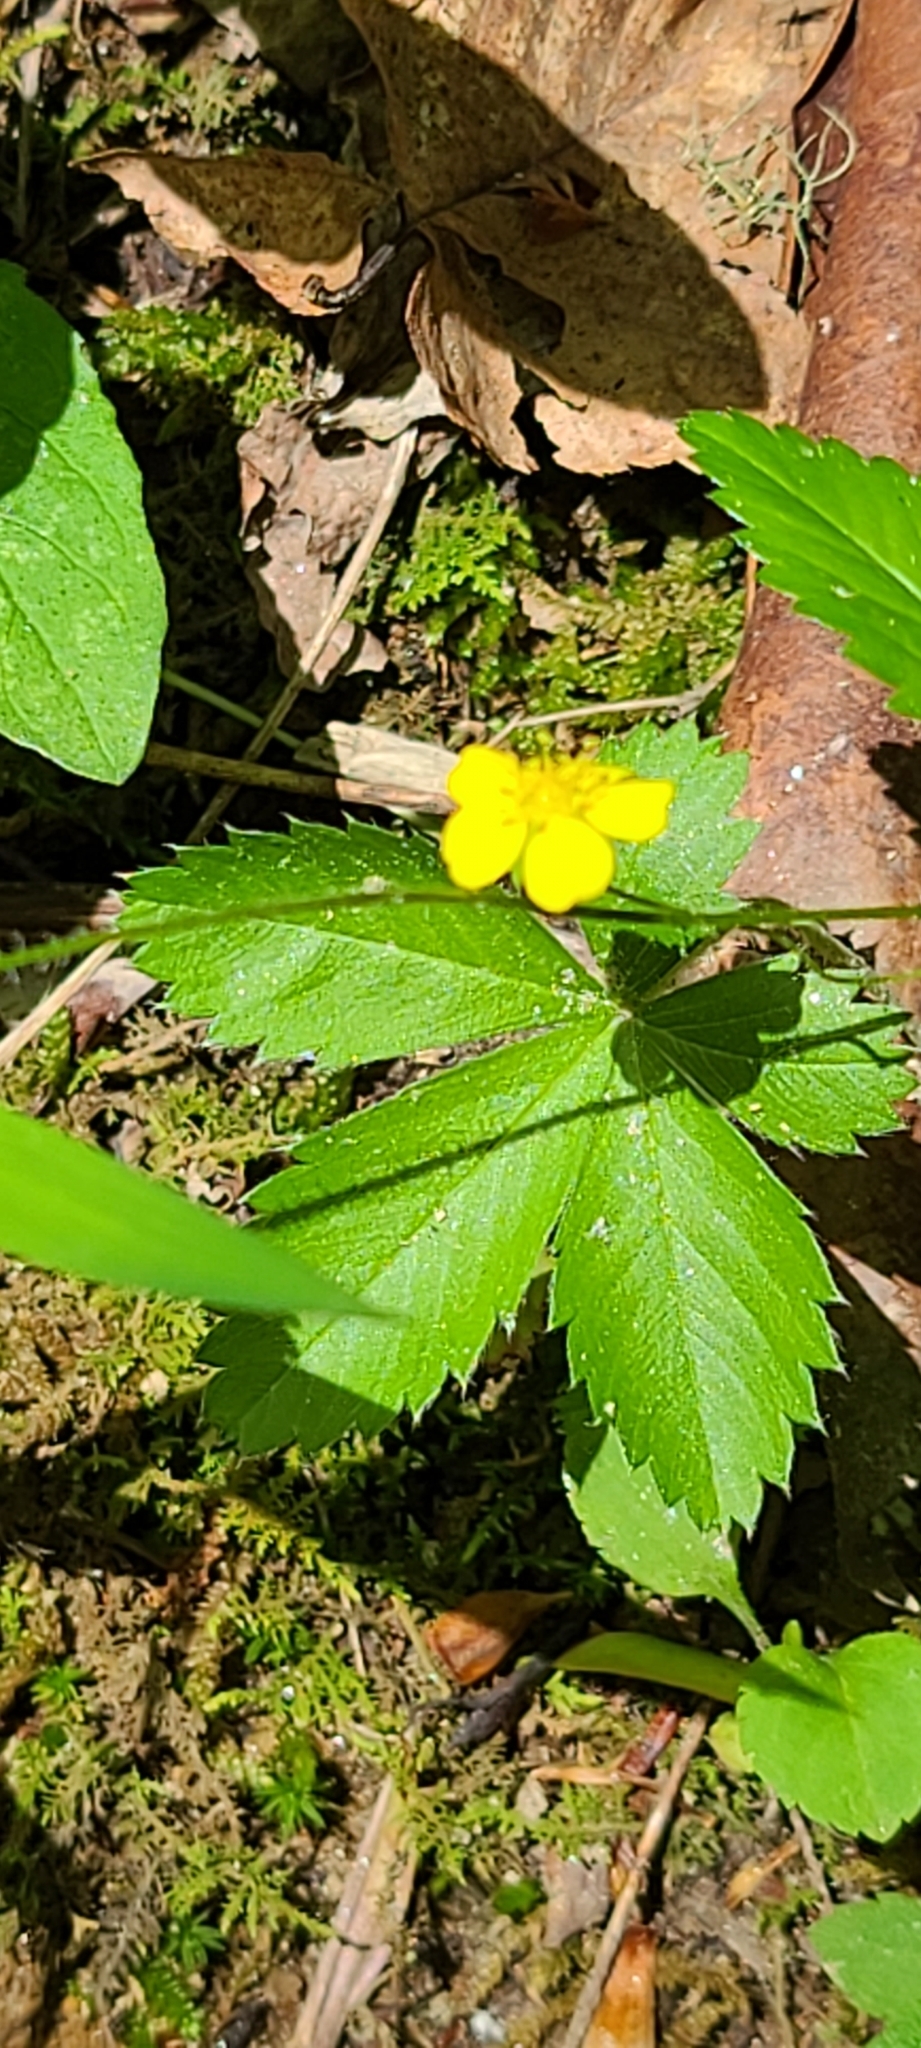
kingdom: Plantae
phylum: Tracheophyta
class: Magnoliopsida
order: Rosales
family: Rosaceae
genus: Potentilla
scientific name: Potentilla simplex
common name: Old field cinquefoil
